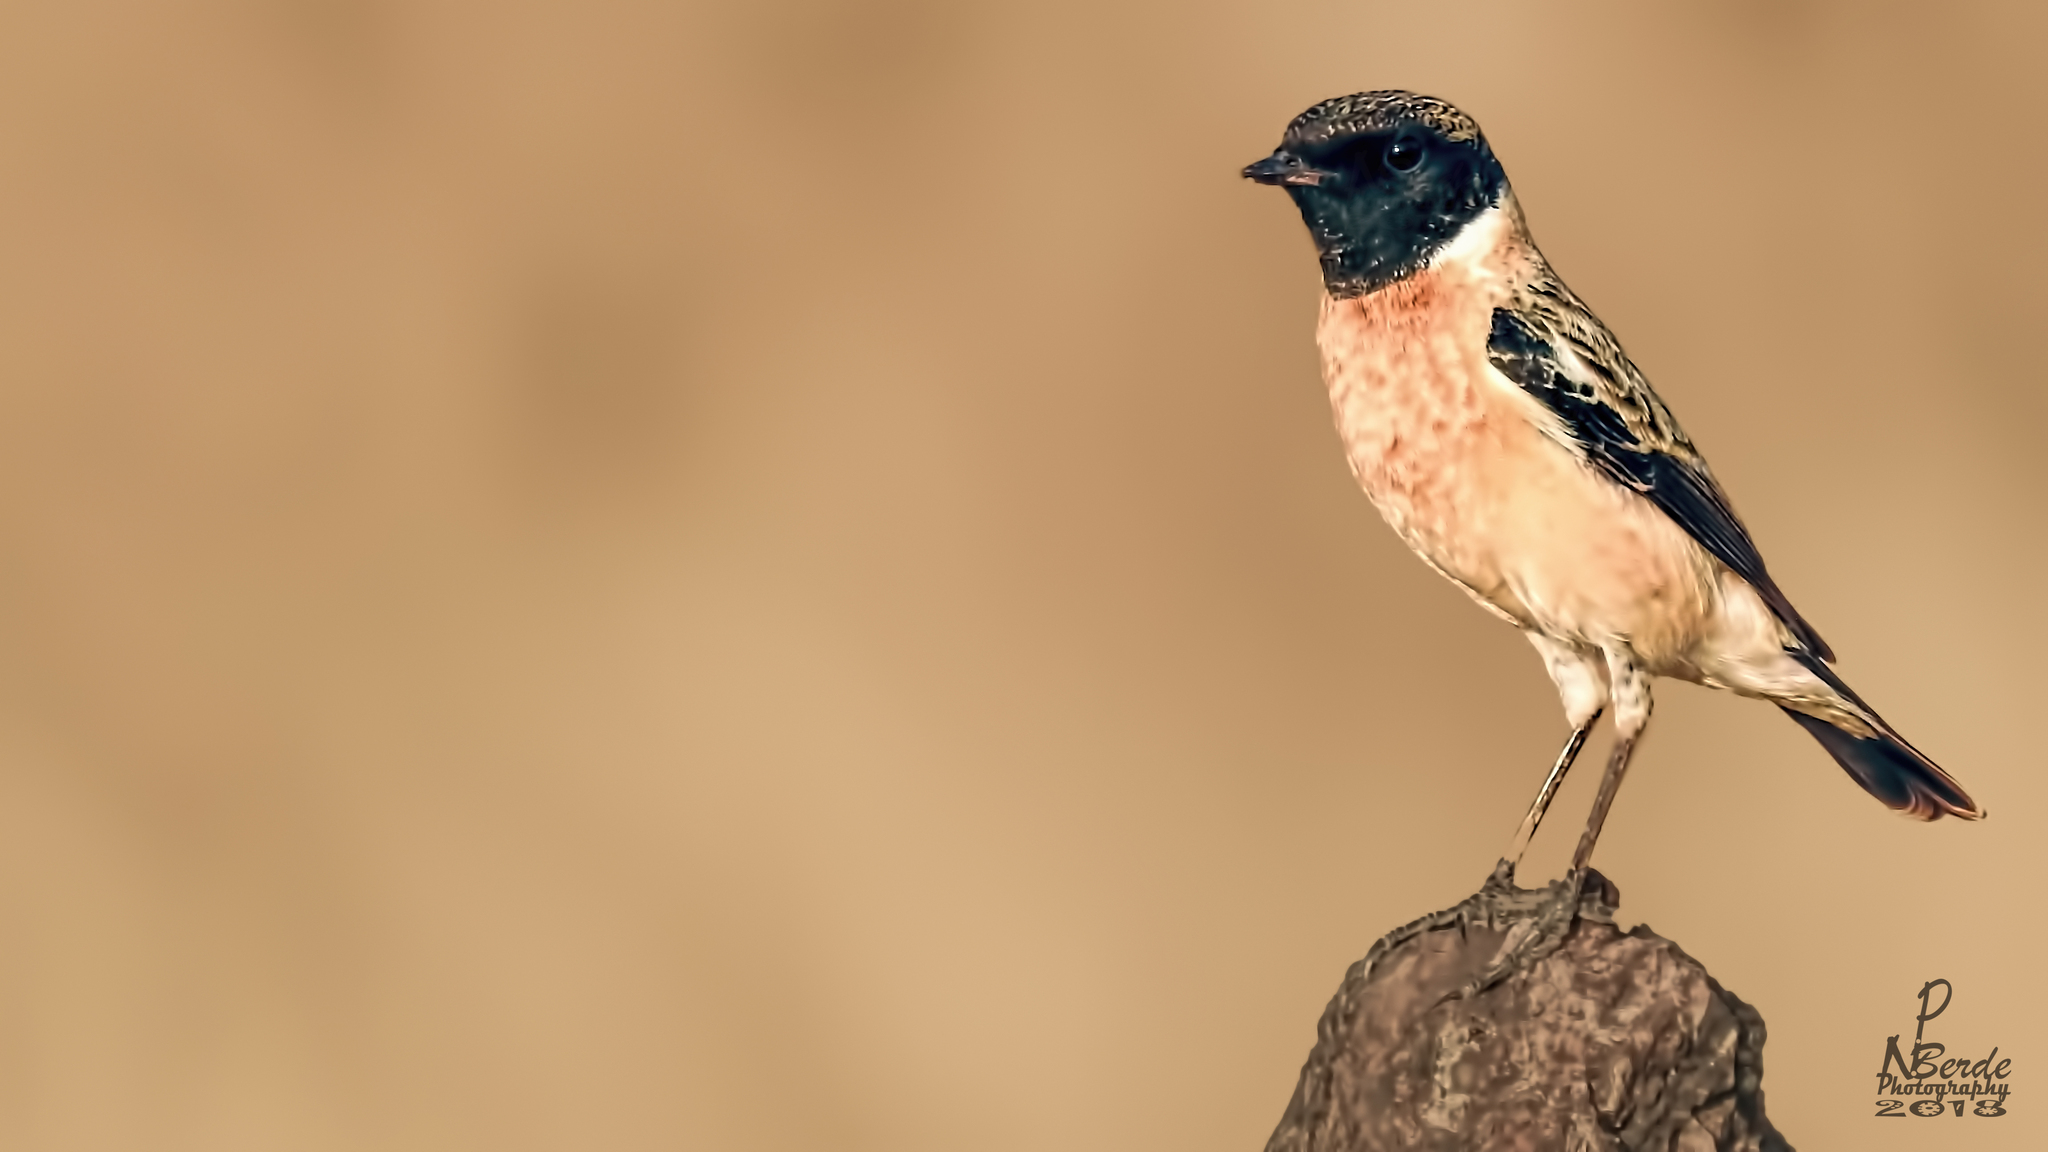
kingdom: Animalia
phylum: Chordata
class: Aves
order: Passeriformes
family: Muscicapidae
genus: Saxicola
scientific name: Saxicola maurus
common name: Siberian stonechat
